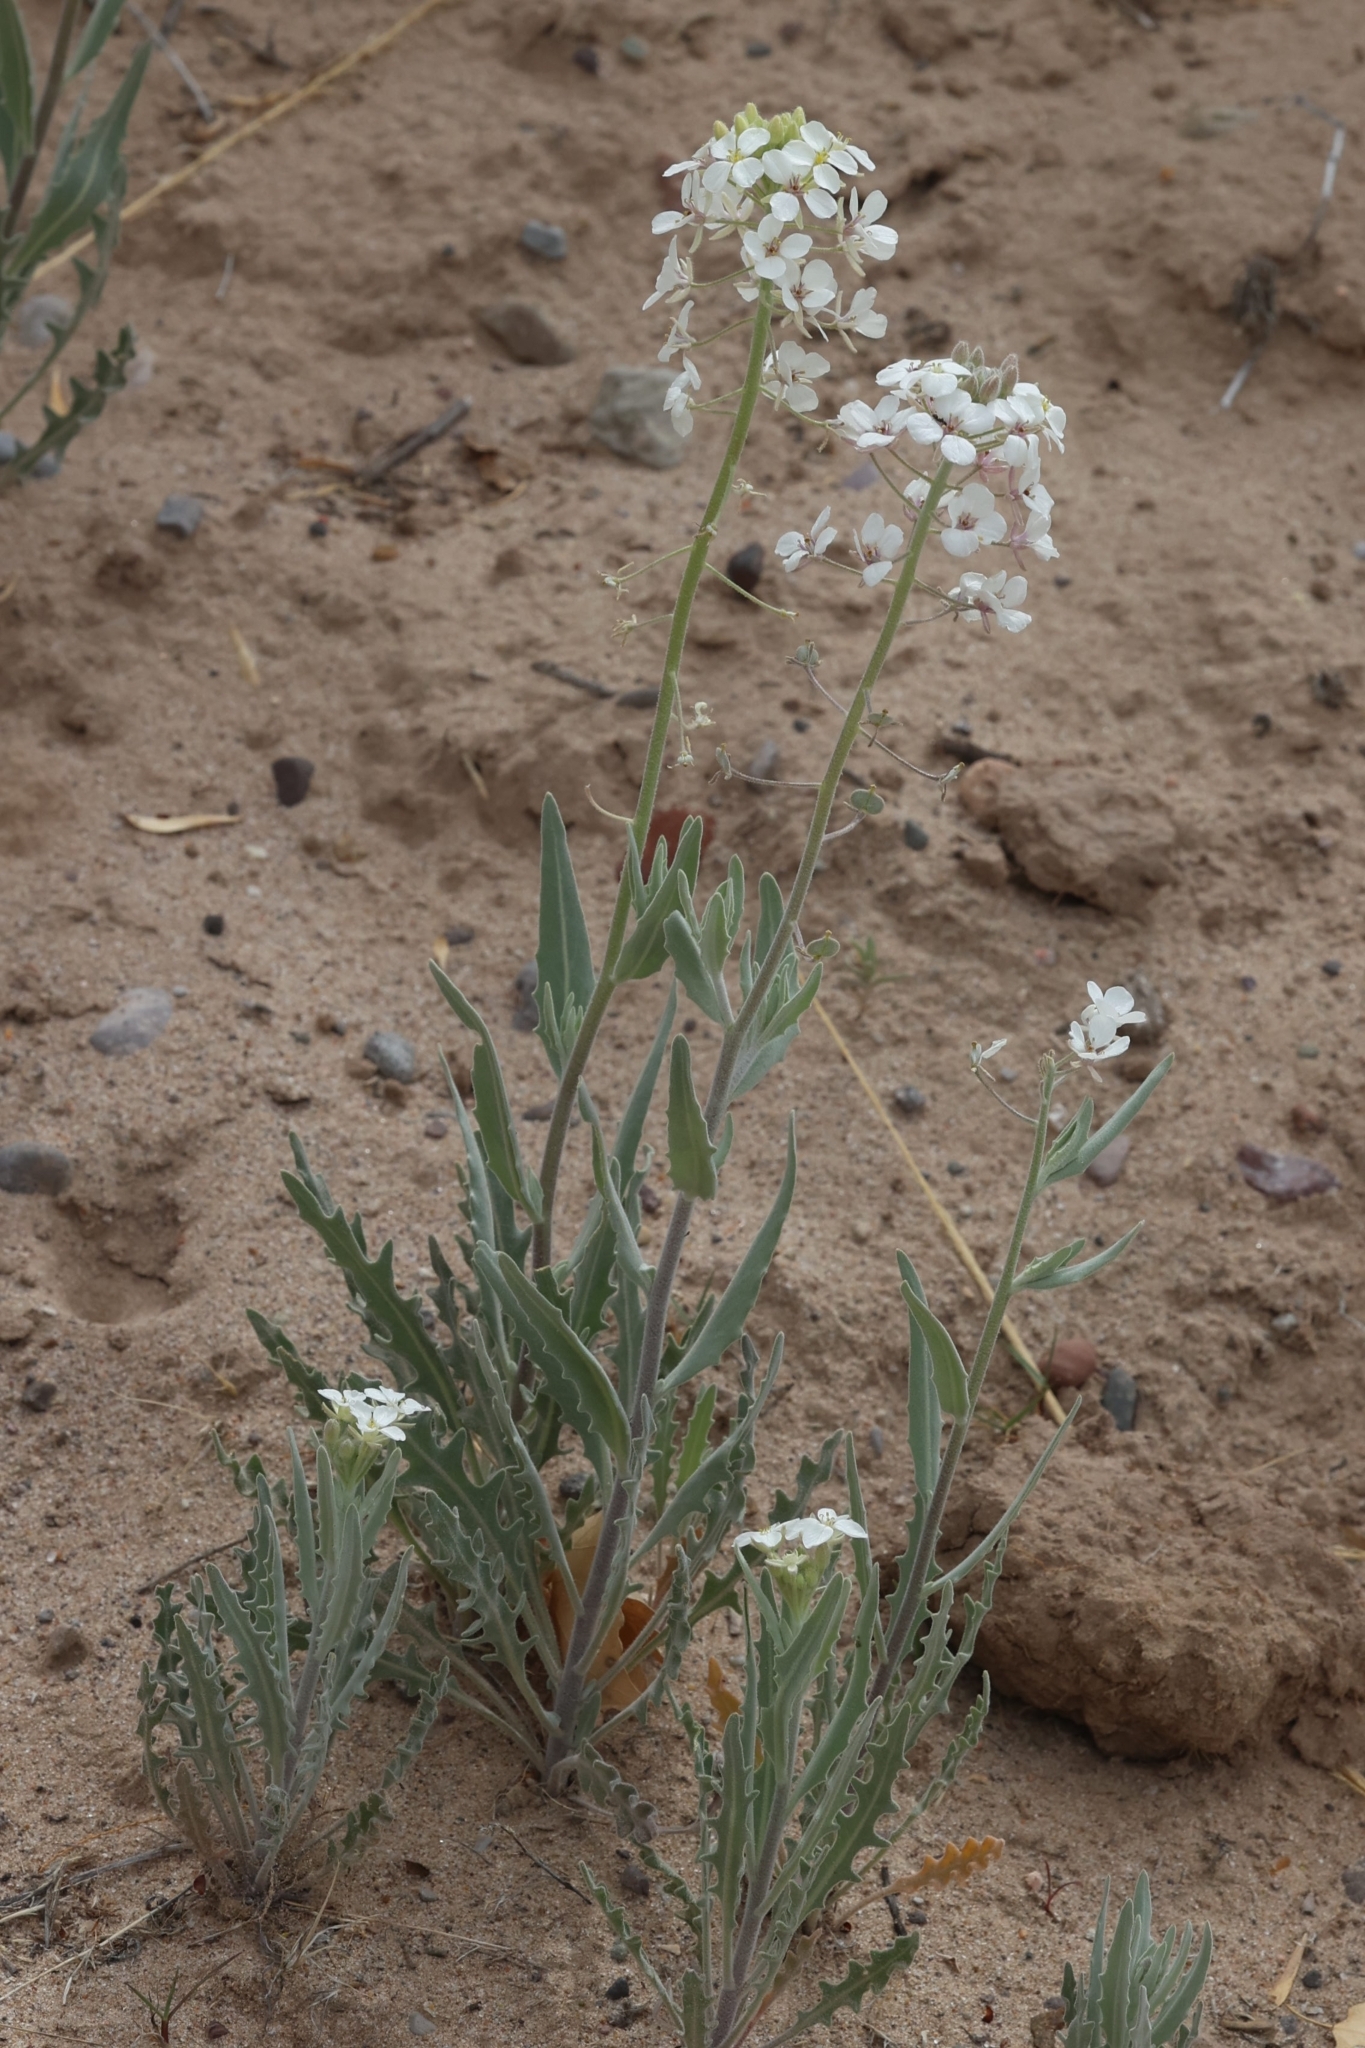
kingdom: Plantae
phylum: Tracheophyta
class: Magnoliopsida
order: Brassicales
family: Brassicaceae
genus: Dimorphocarpa
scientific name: Dimorphocarpa wislizenii
